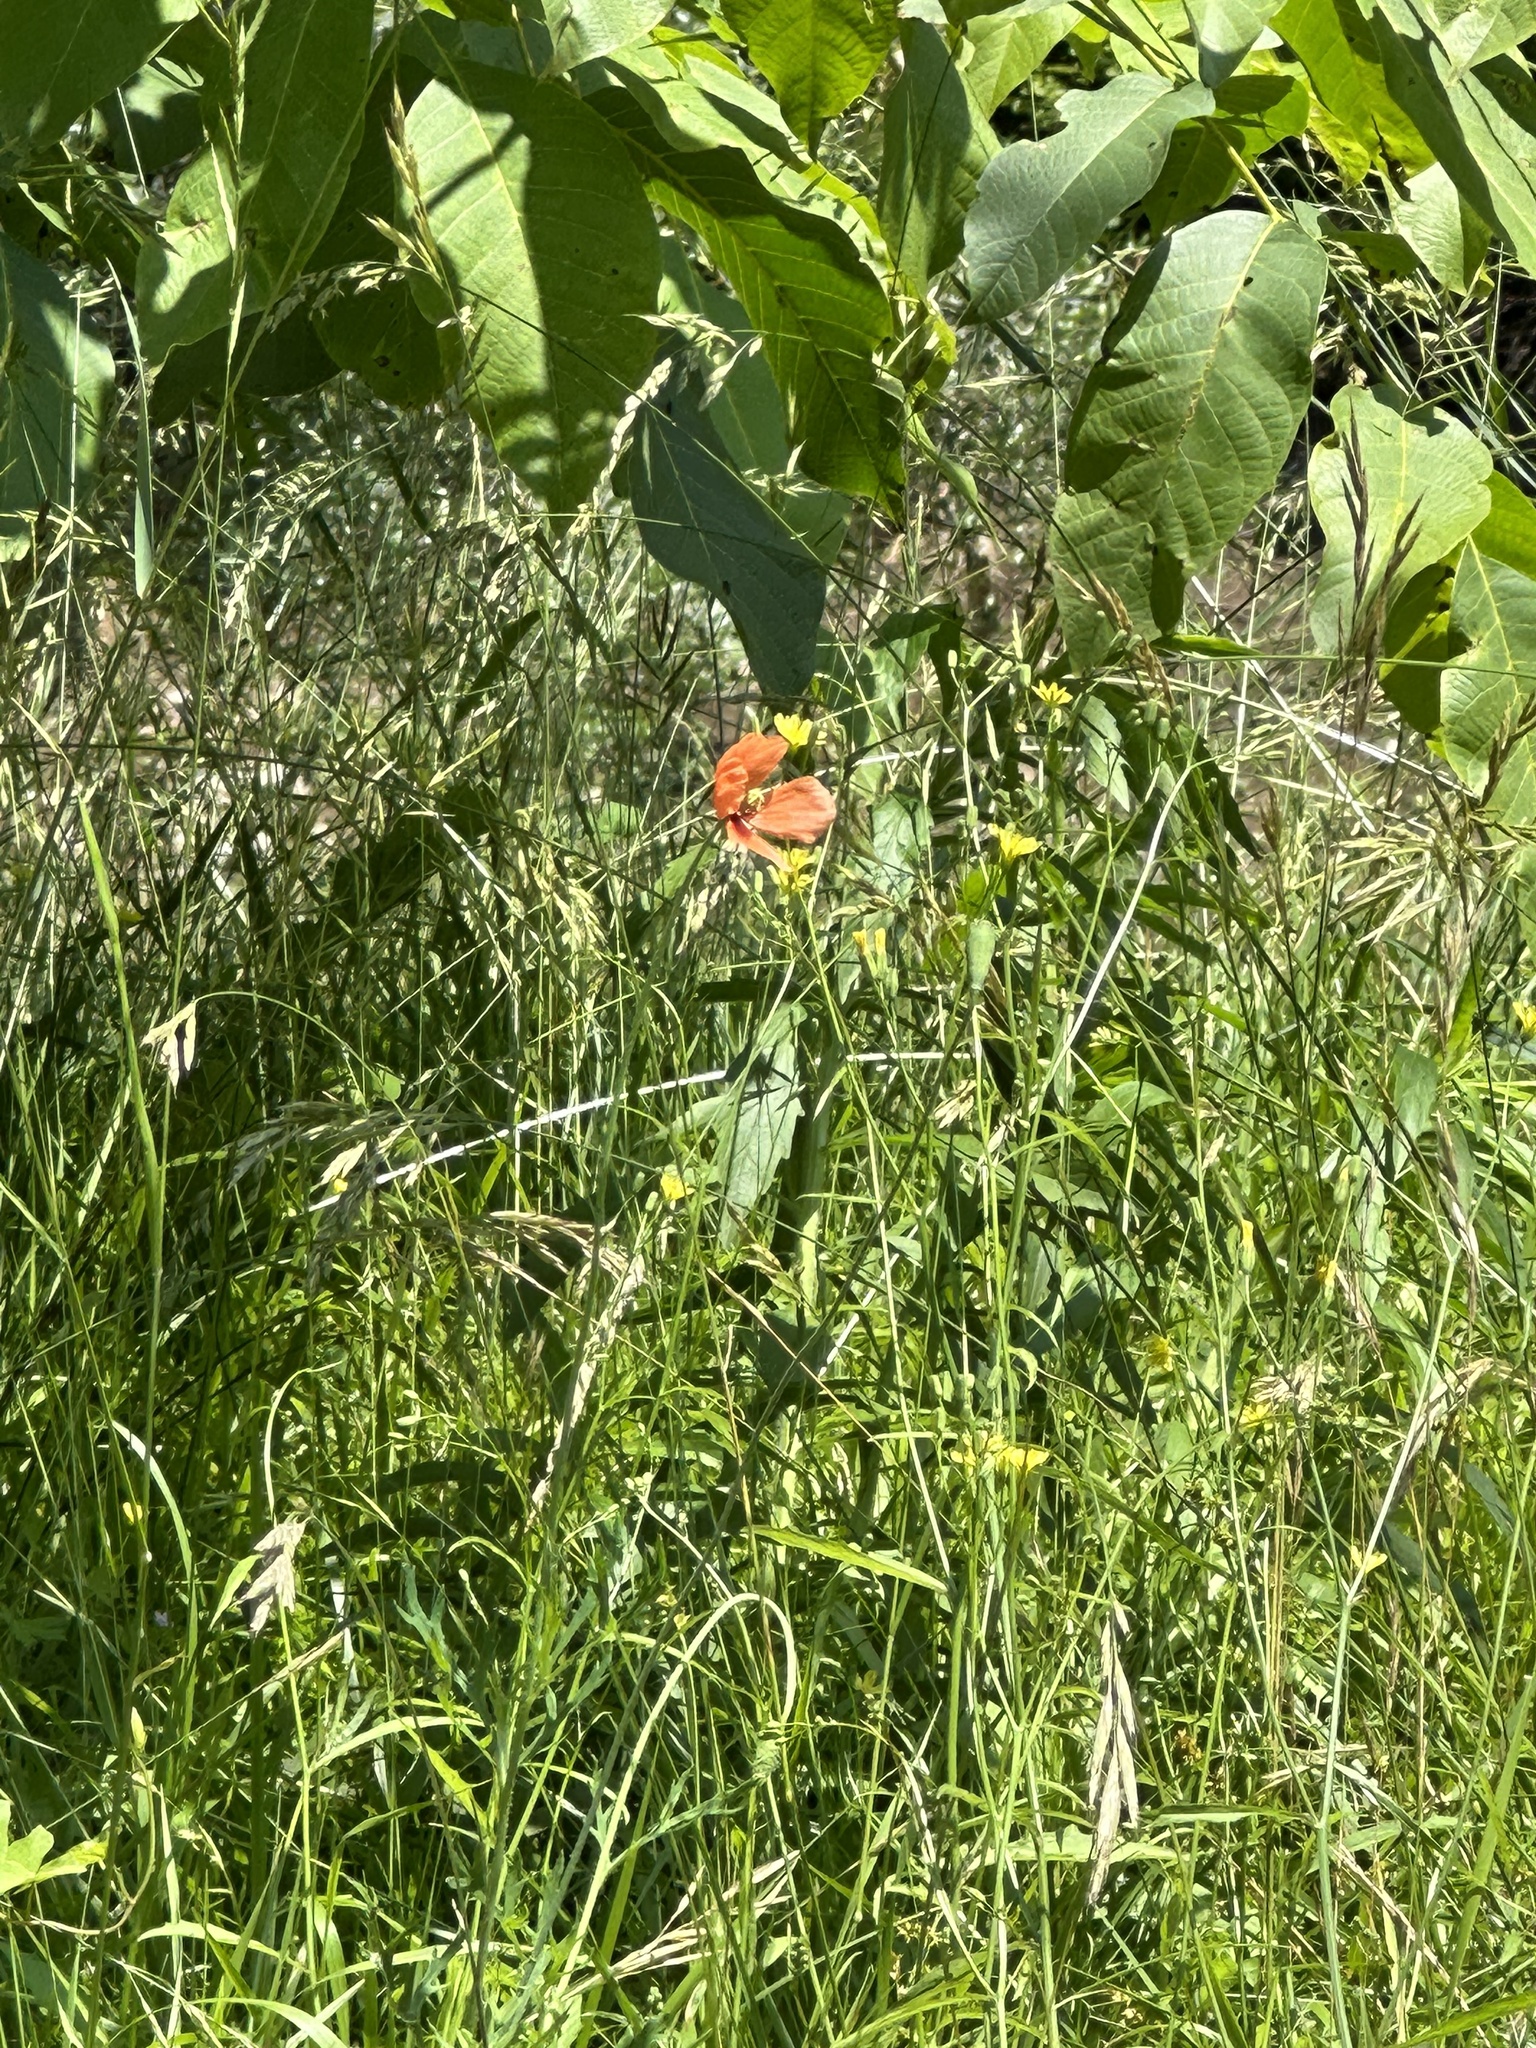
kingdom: Plantae
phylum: Tracheophyta
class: Magnoliopsida
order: Ranunculales
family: Papaveraceae
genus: Papaver
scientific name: Papaver dubium
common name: Long-headed poppy
